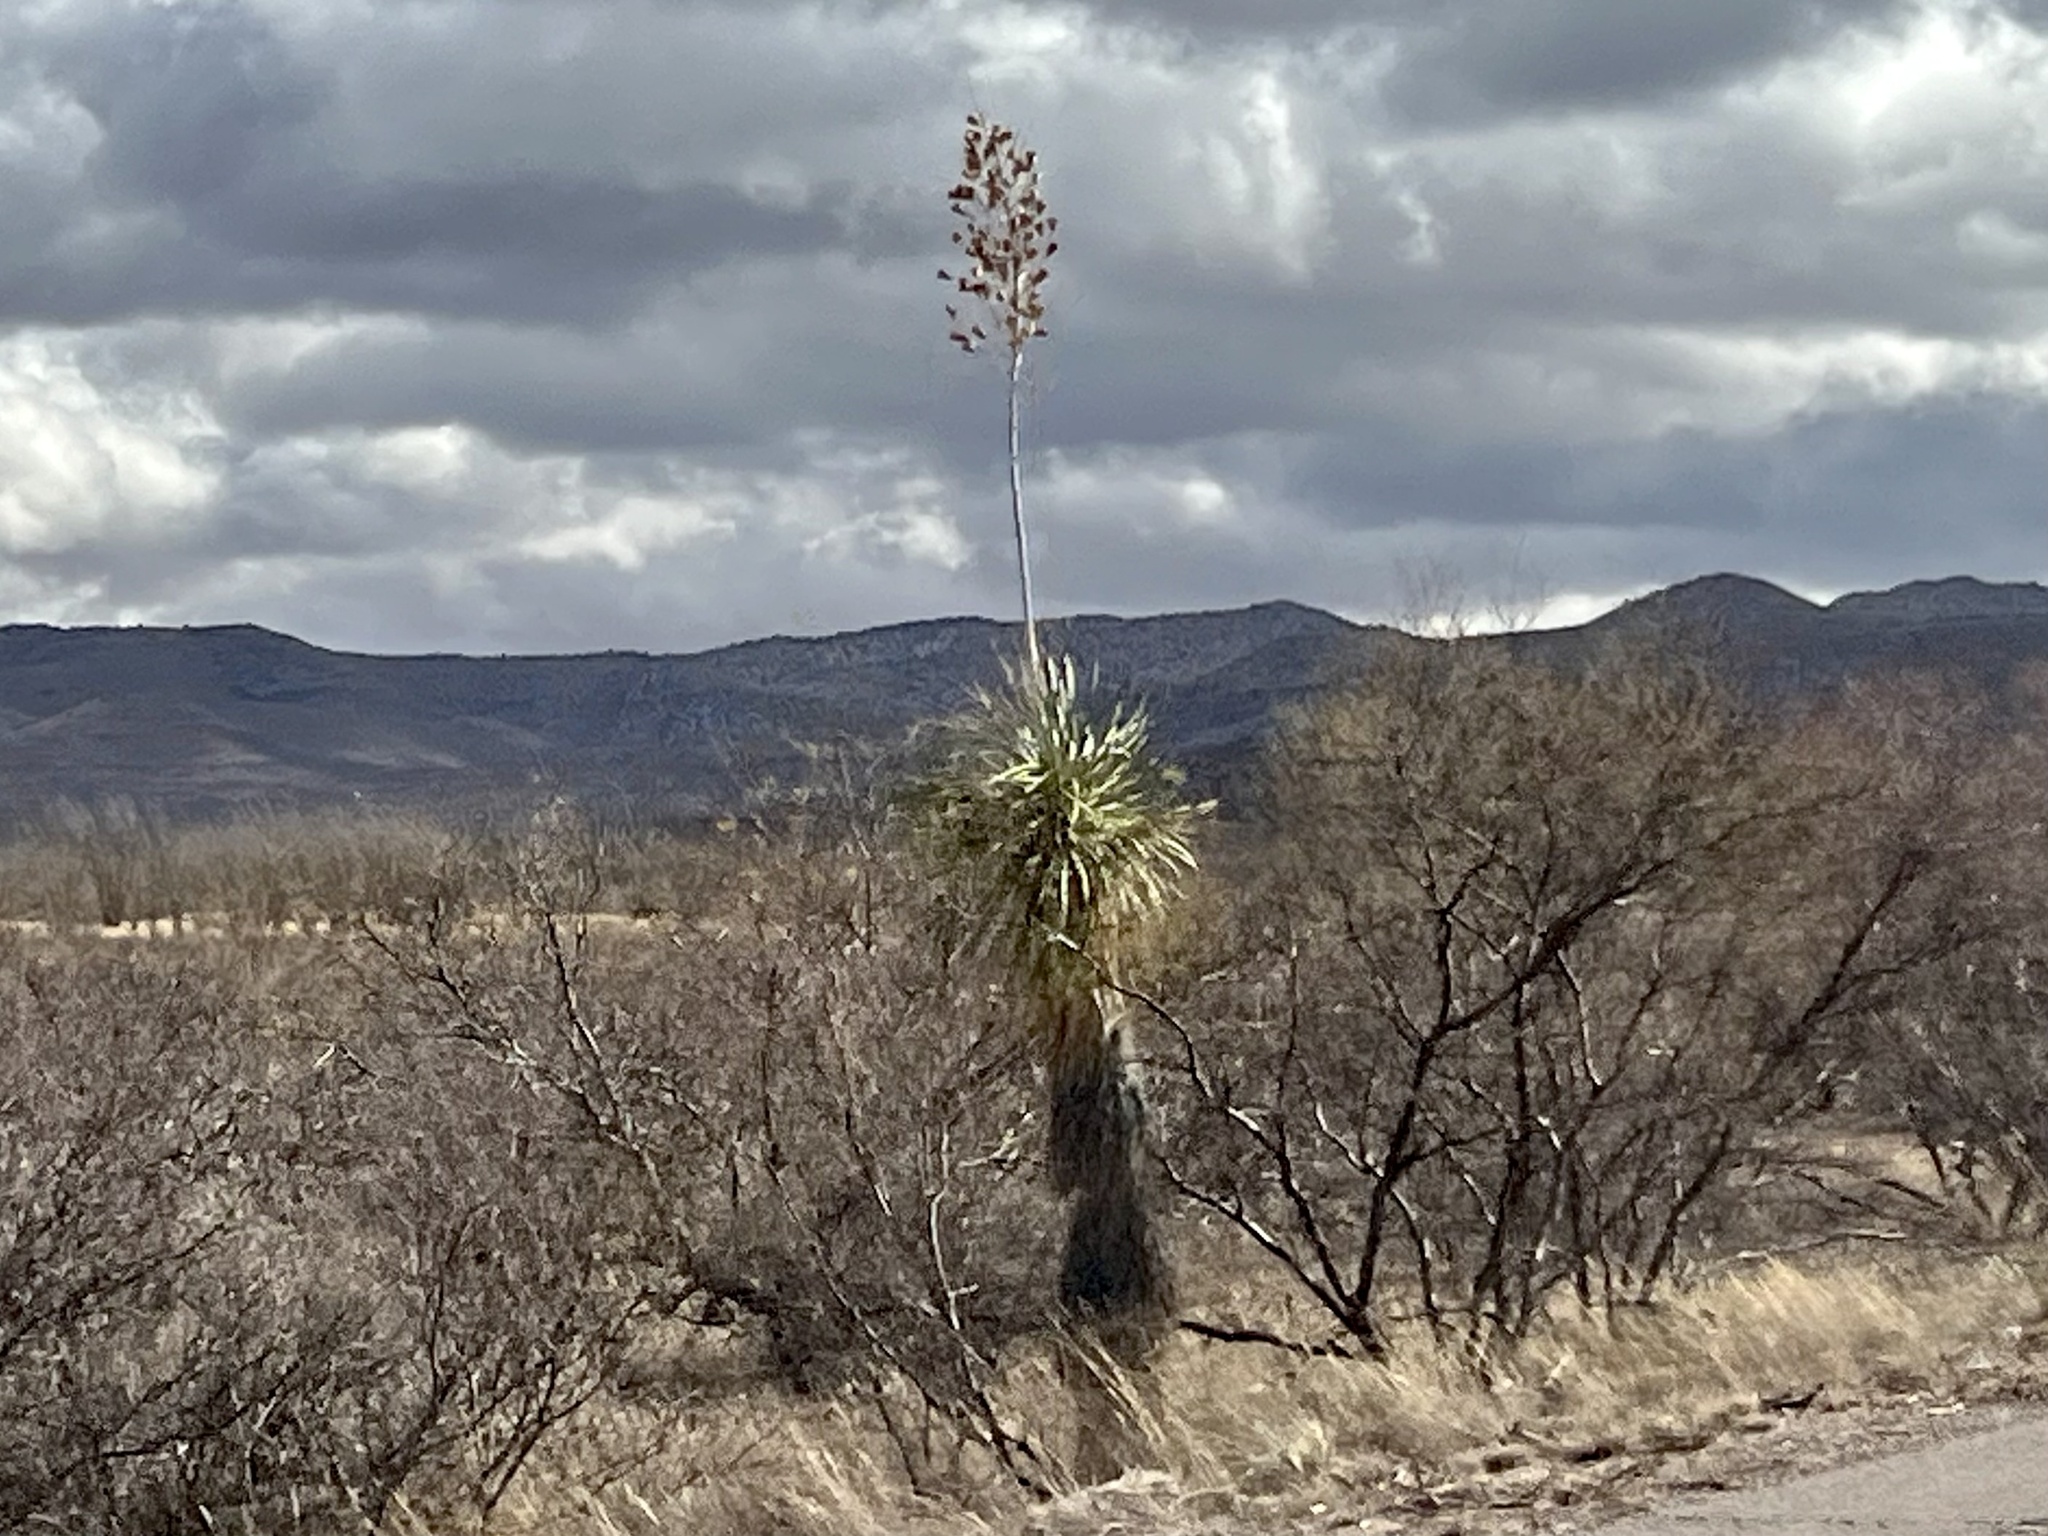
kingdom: Plantae
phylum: Tracheophyta
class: Liliopsida
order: Asparagales
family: Asparagaceae
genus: Yucca
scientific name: Yucca elata
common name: Palmella
